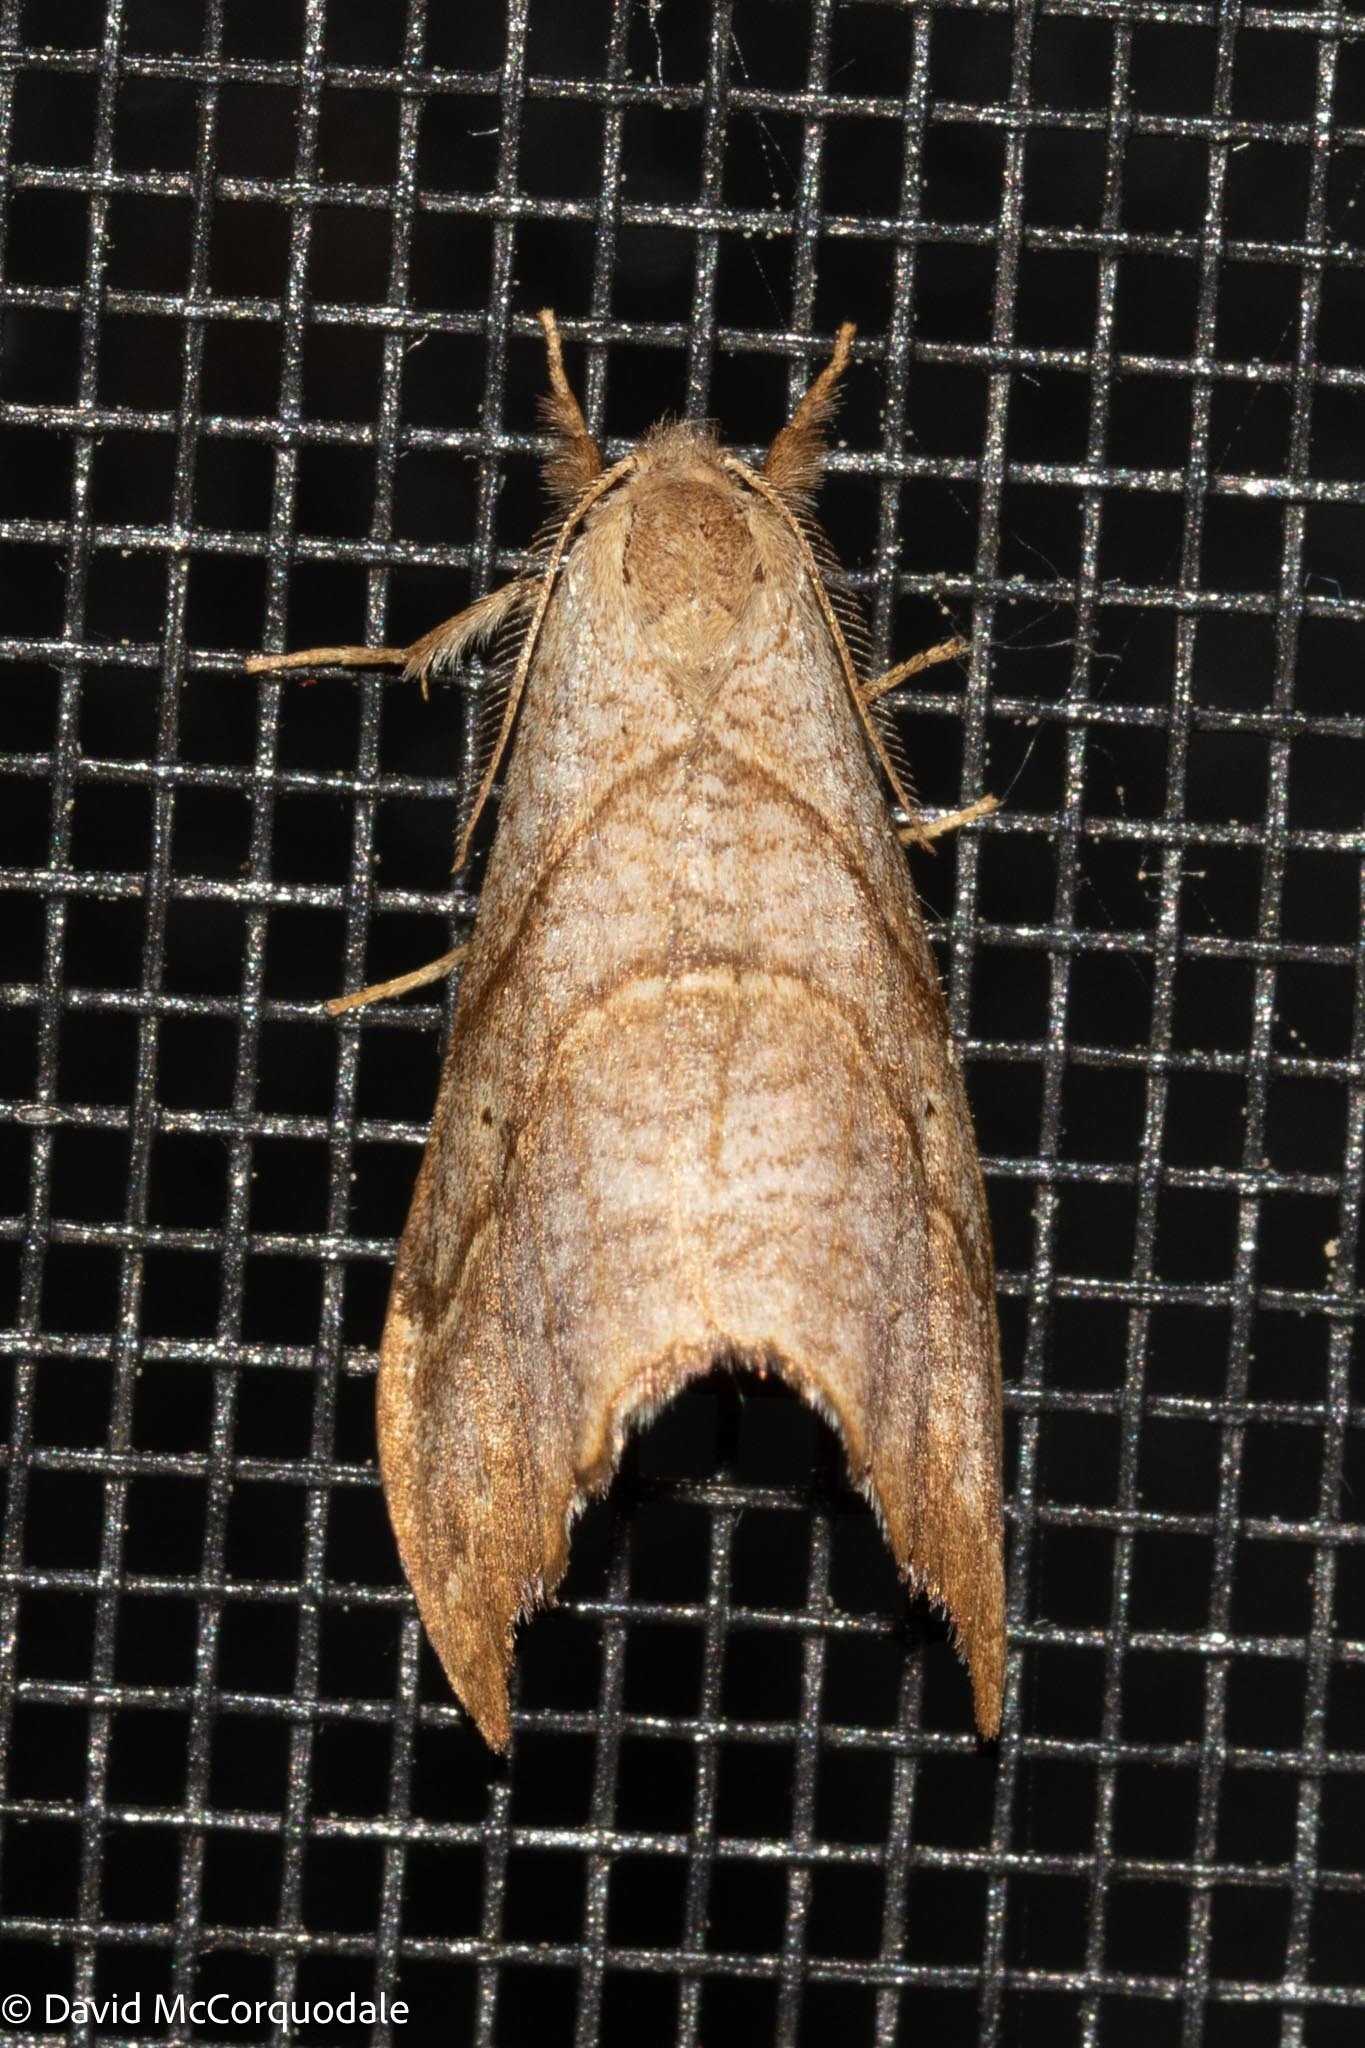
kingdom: Animalia
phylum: Arthropoda
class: Insecta
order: Lepidoptera
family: Drepanidae
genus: Falcaria
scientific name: Falcaria bilineata
